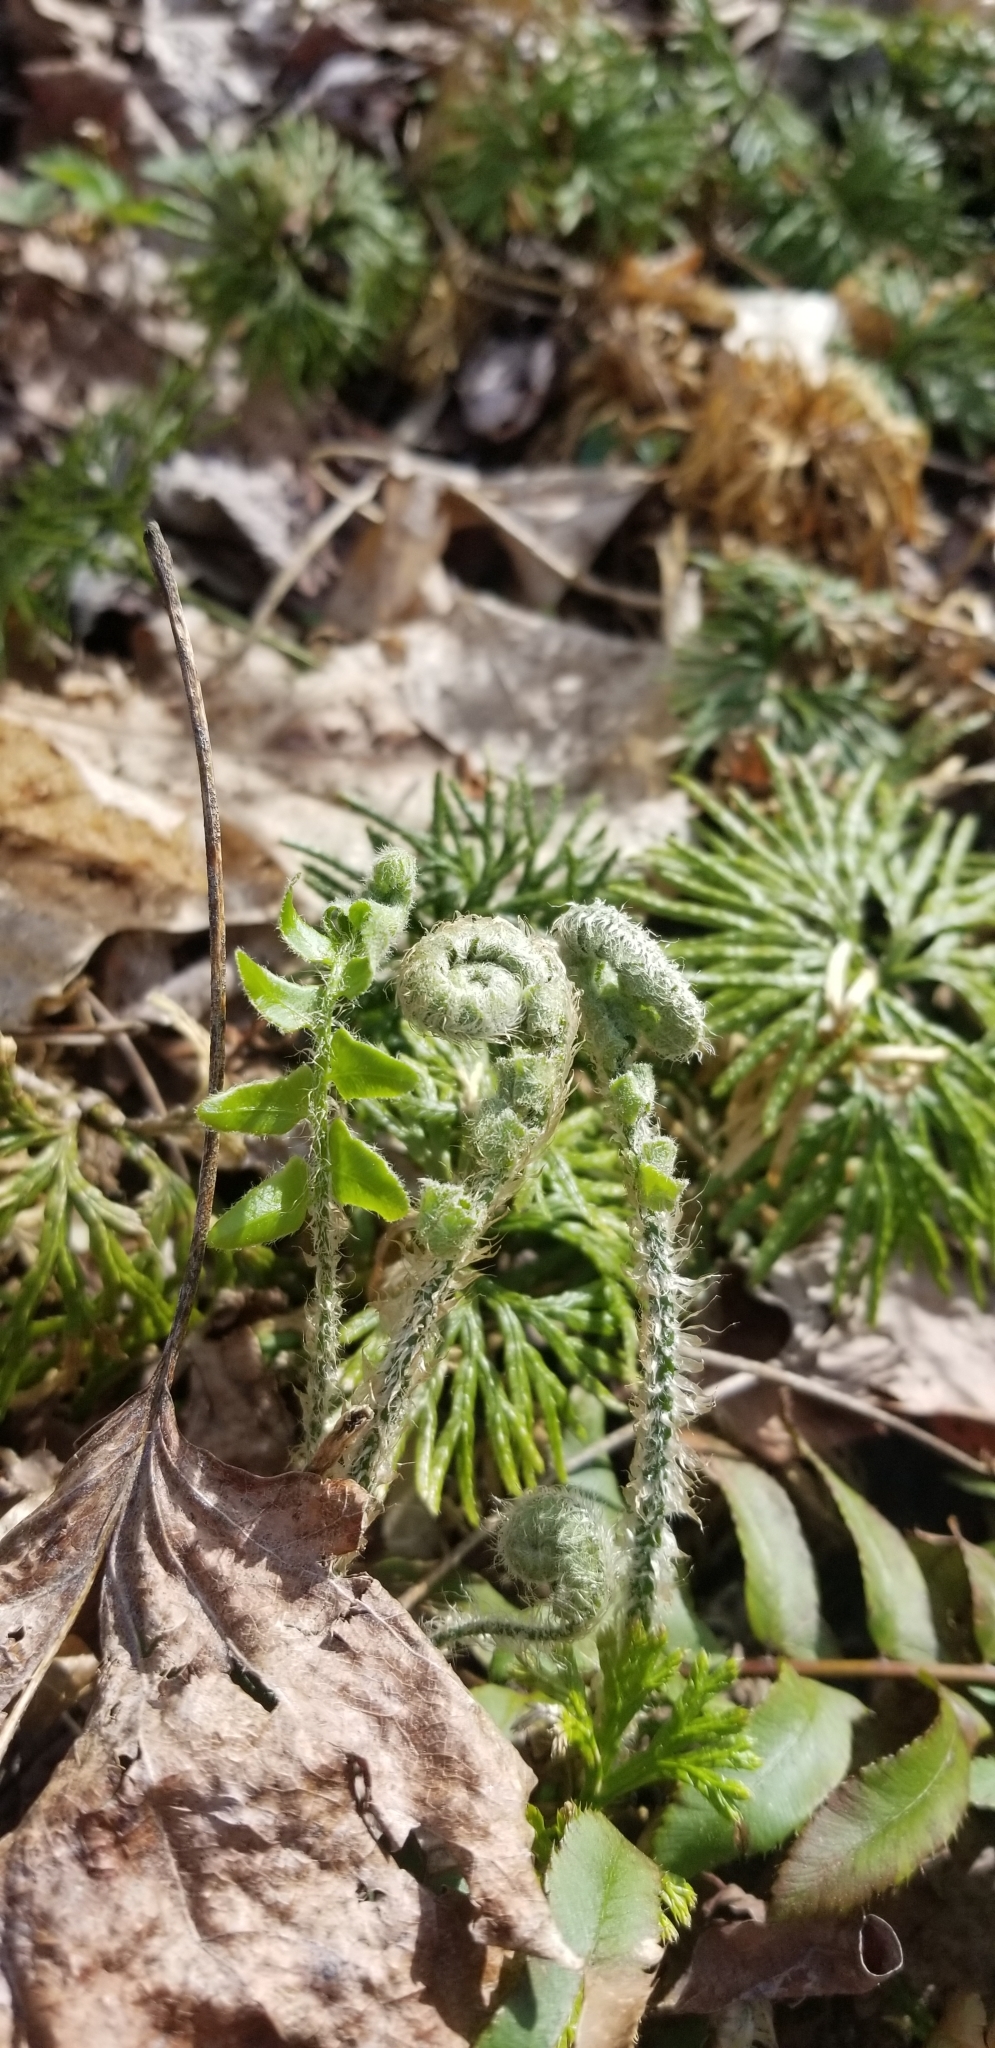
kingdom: Plantae
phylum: Tracheophyta
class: Polypodiopsida
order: Polypodiales
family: Dryopteridaceae
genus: Polystichum
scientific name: Polystichum acrostichoides
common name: Christmas fern
